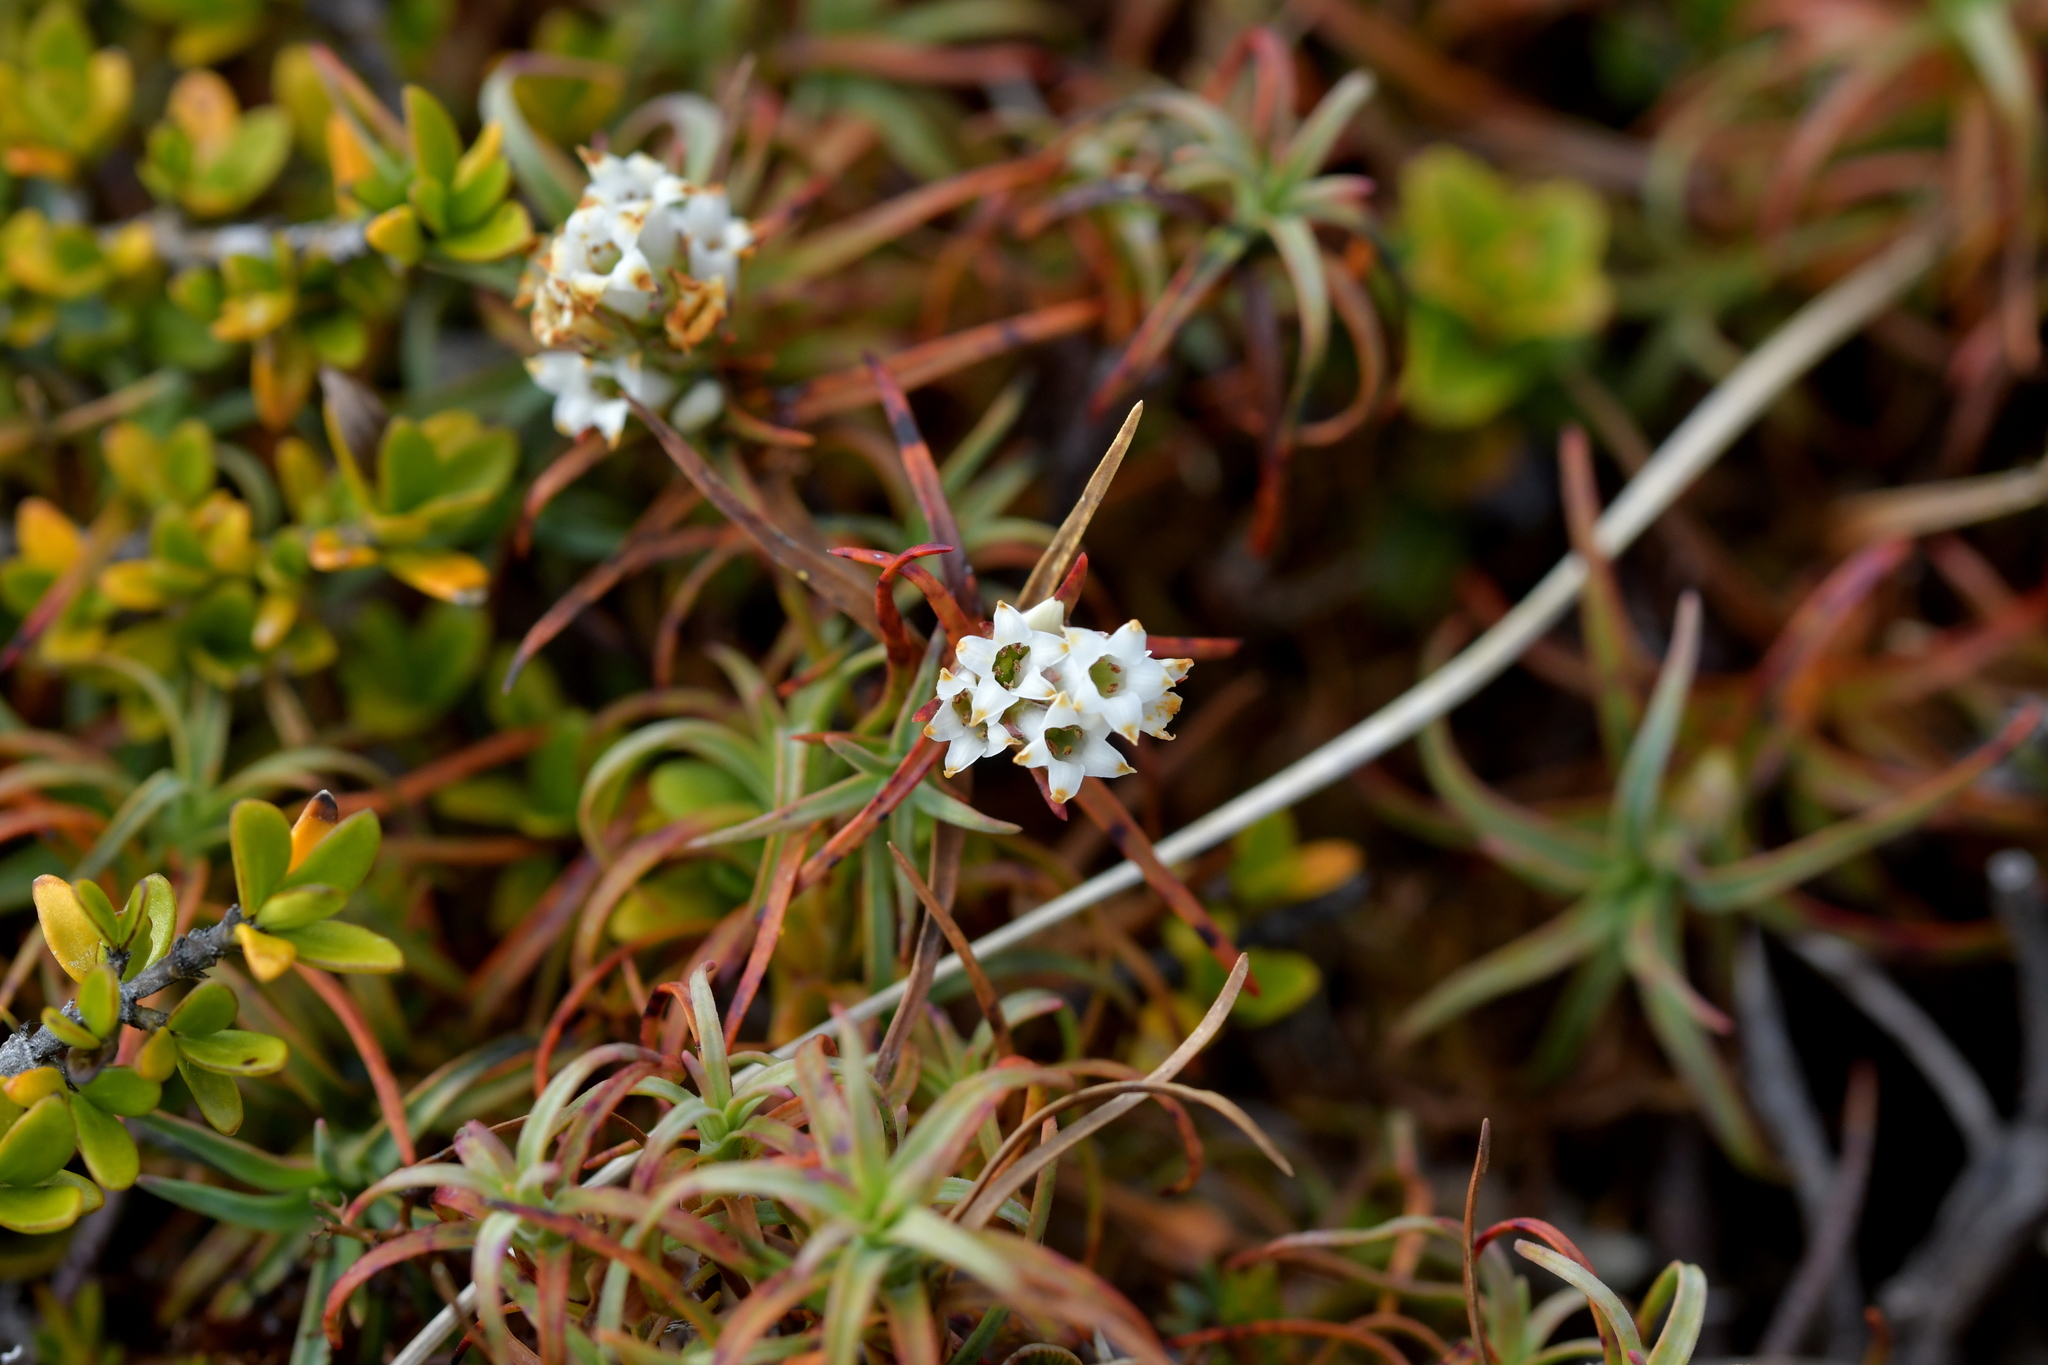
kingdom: Plantae
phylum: Tracheophyta
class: Magnoliopsida
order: Ericales
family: Ericaceae
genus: Dracophyllum
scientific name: Dracophyllum recurvum
